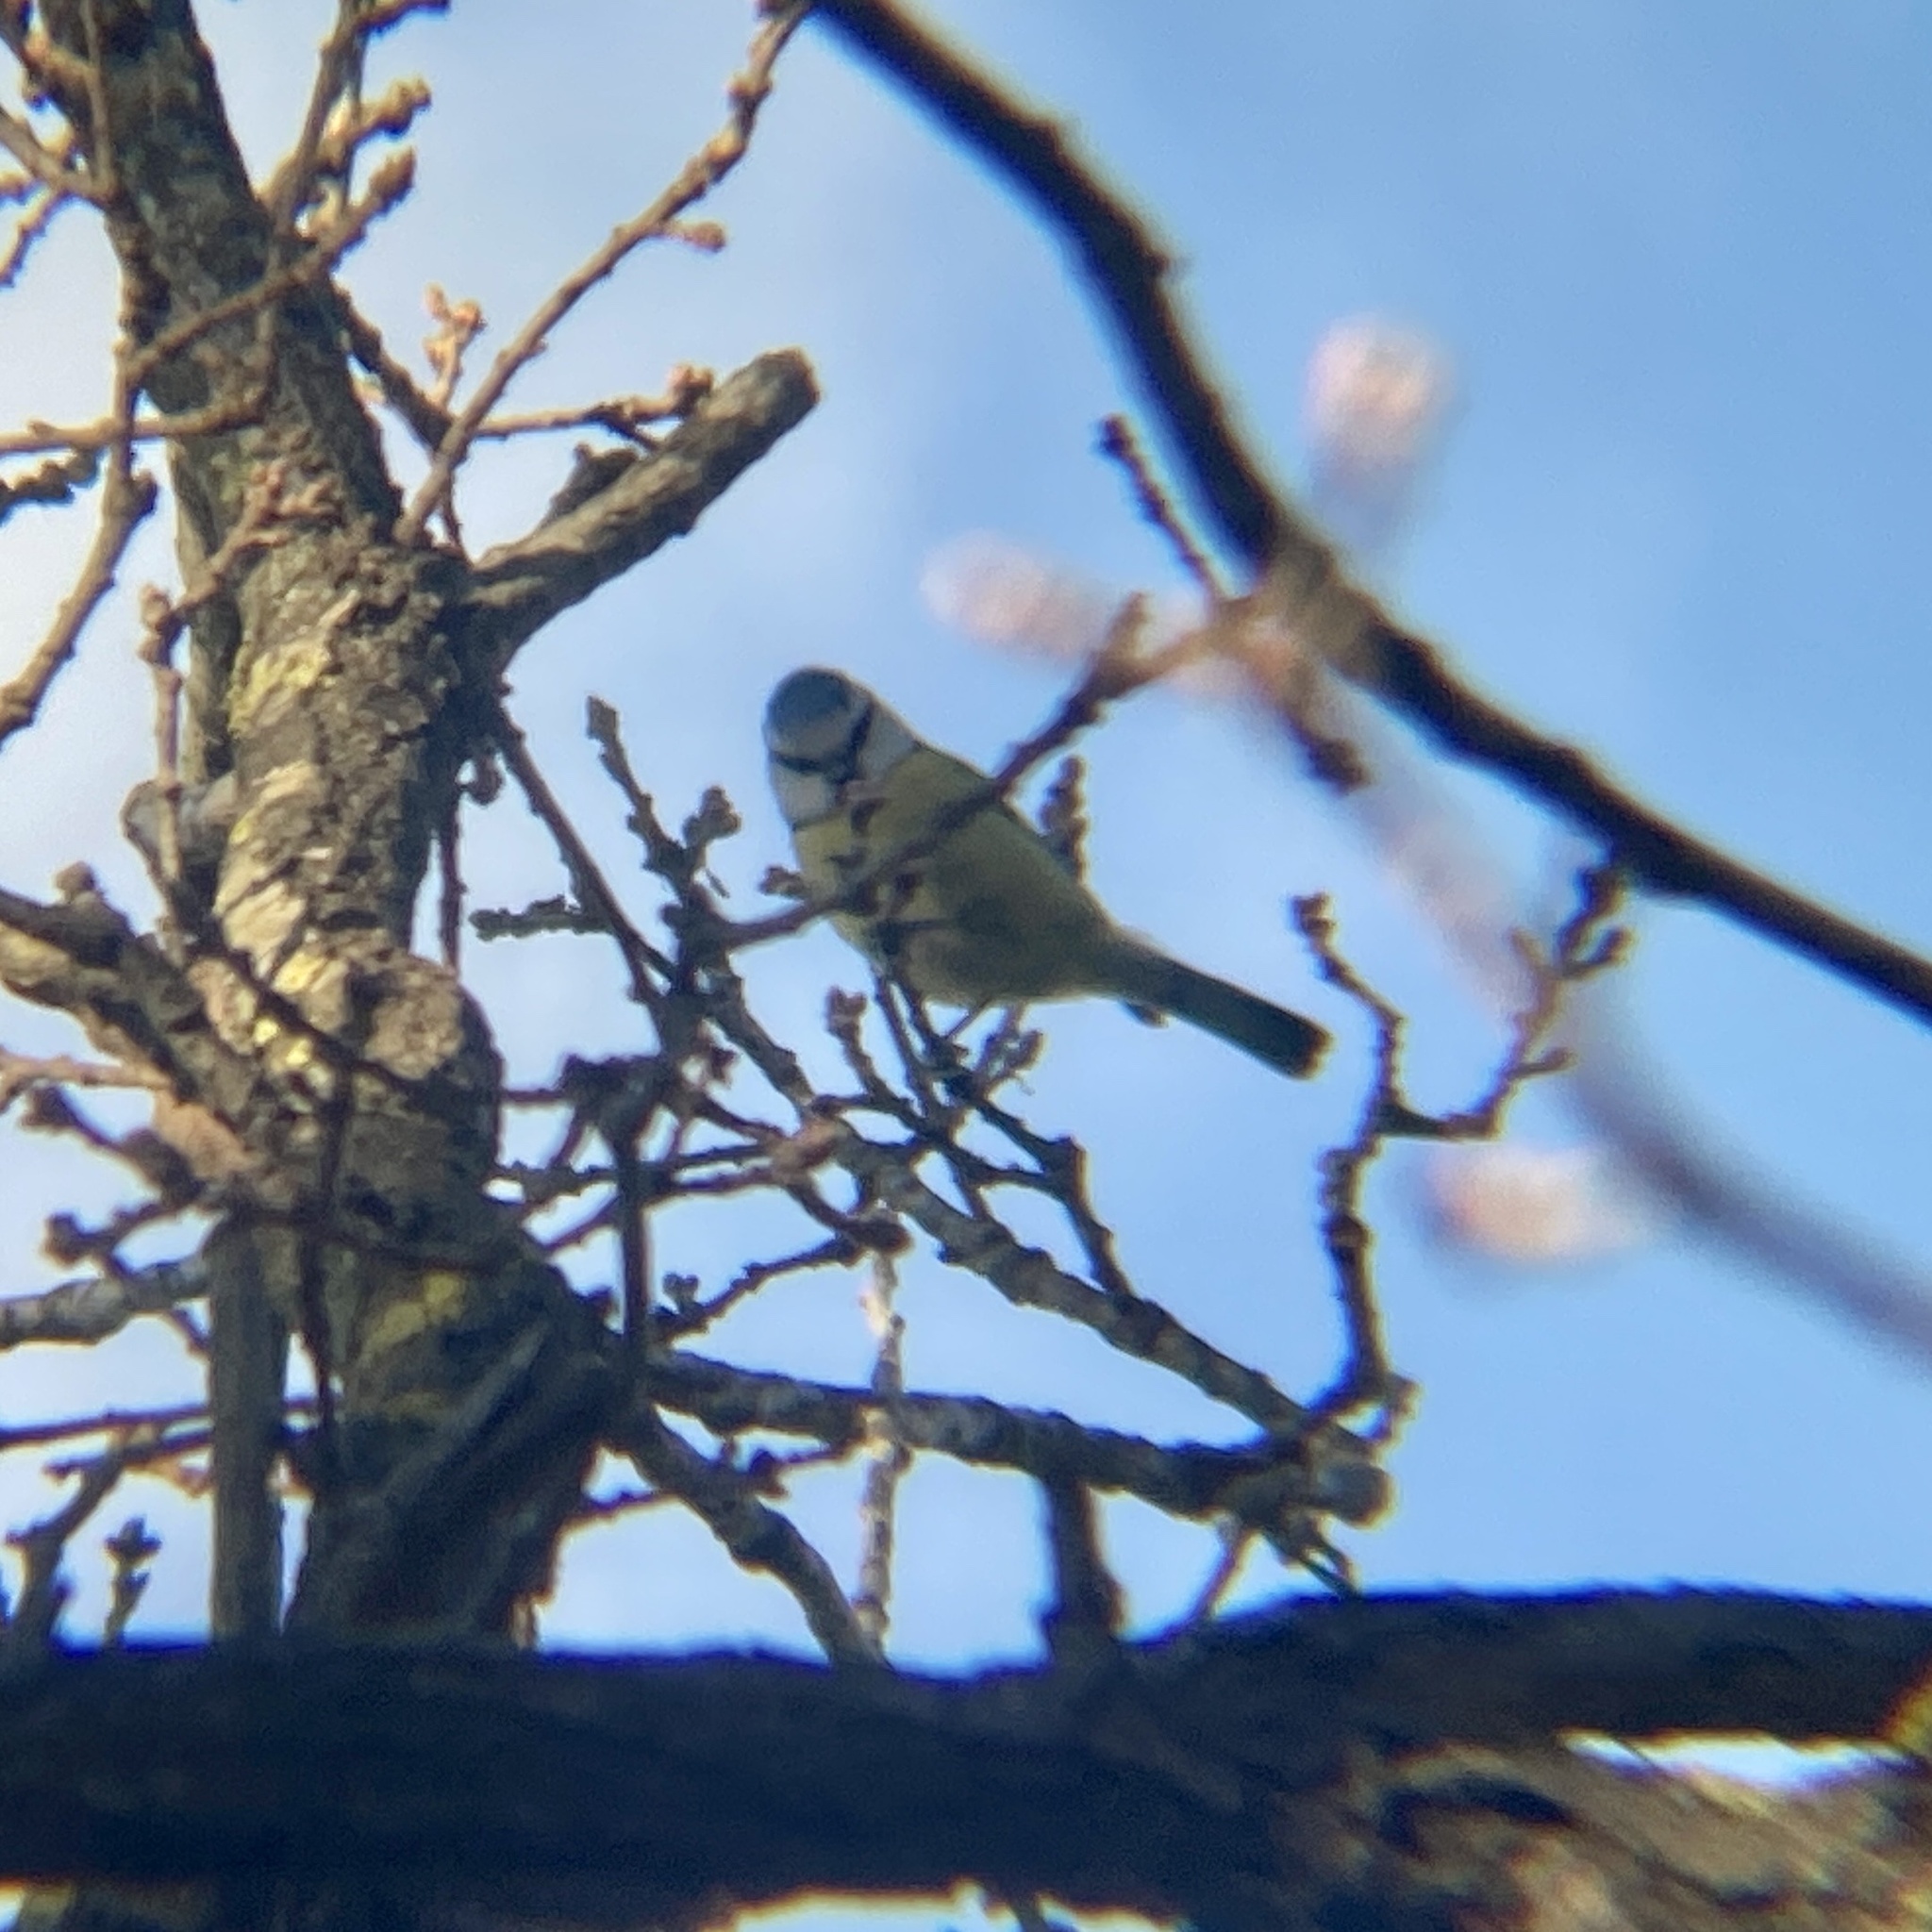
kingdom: Animalia
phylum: Chordata
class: Aves
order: Passeriformes
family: Paridae
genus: Cyanistes
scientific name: Cyanistes caeruleus
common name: Eurasian blue tit
